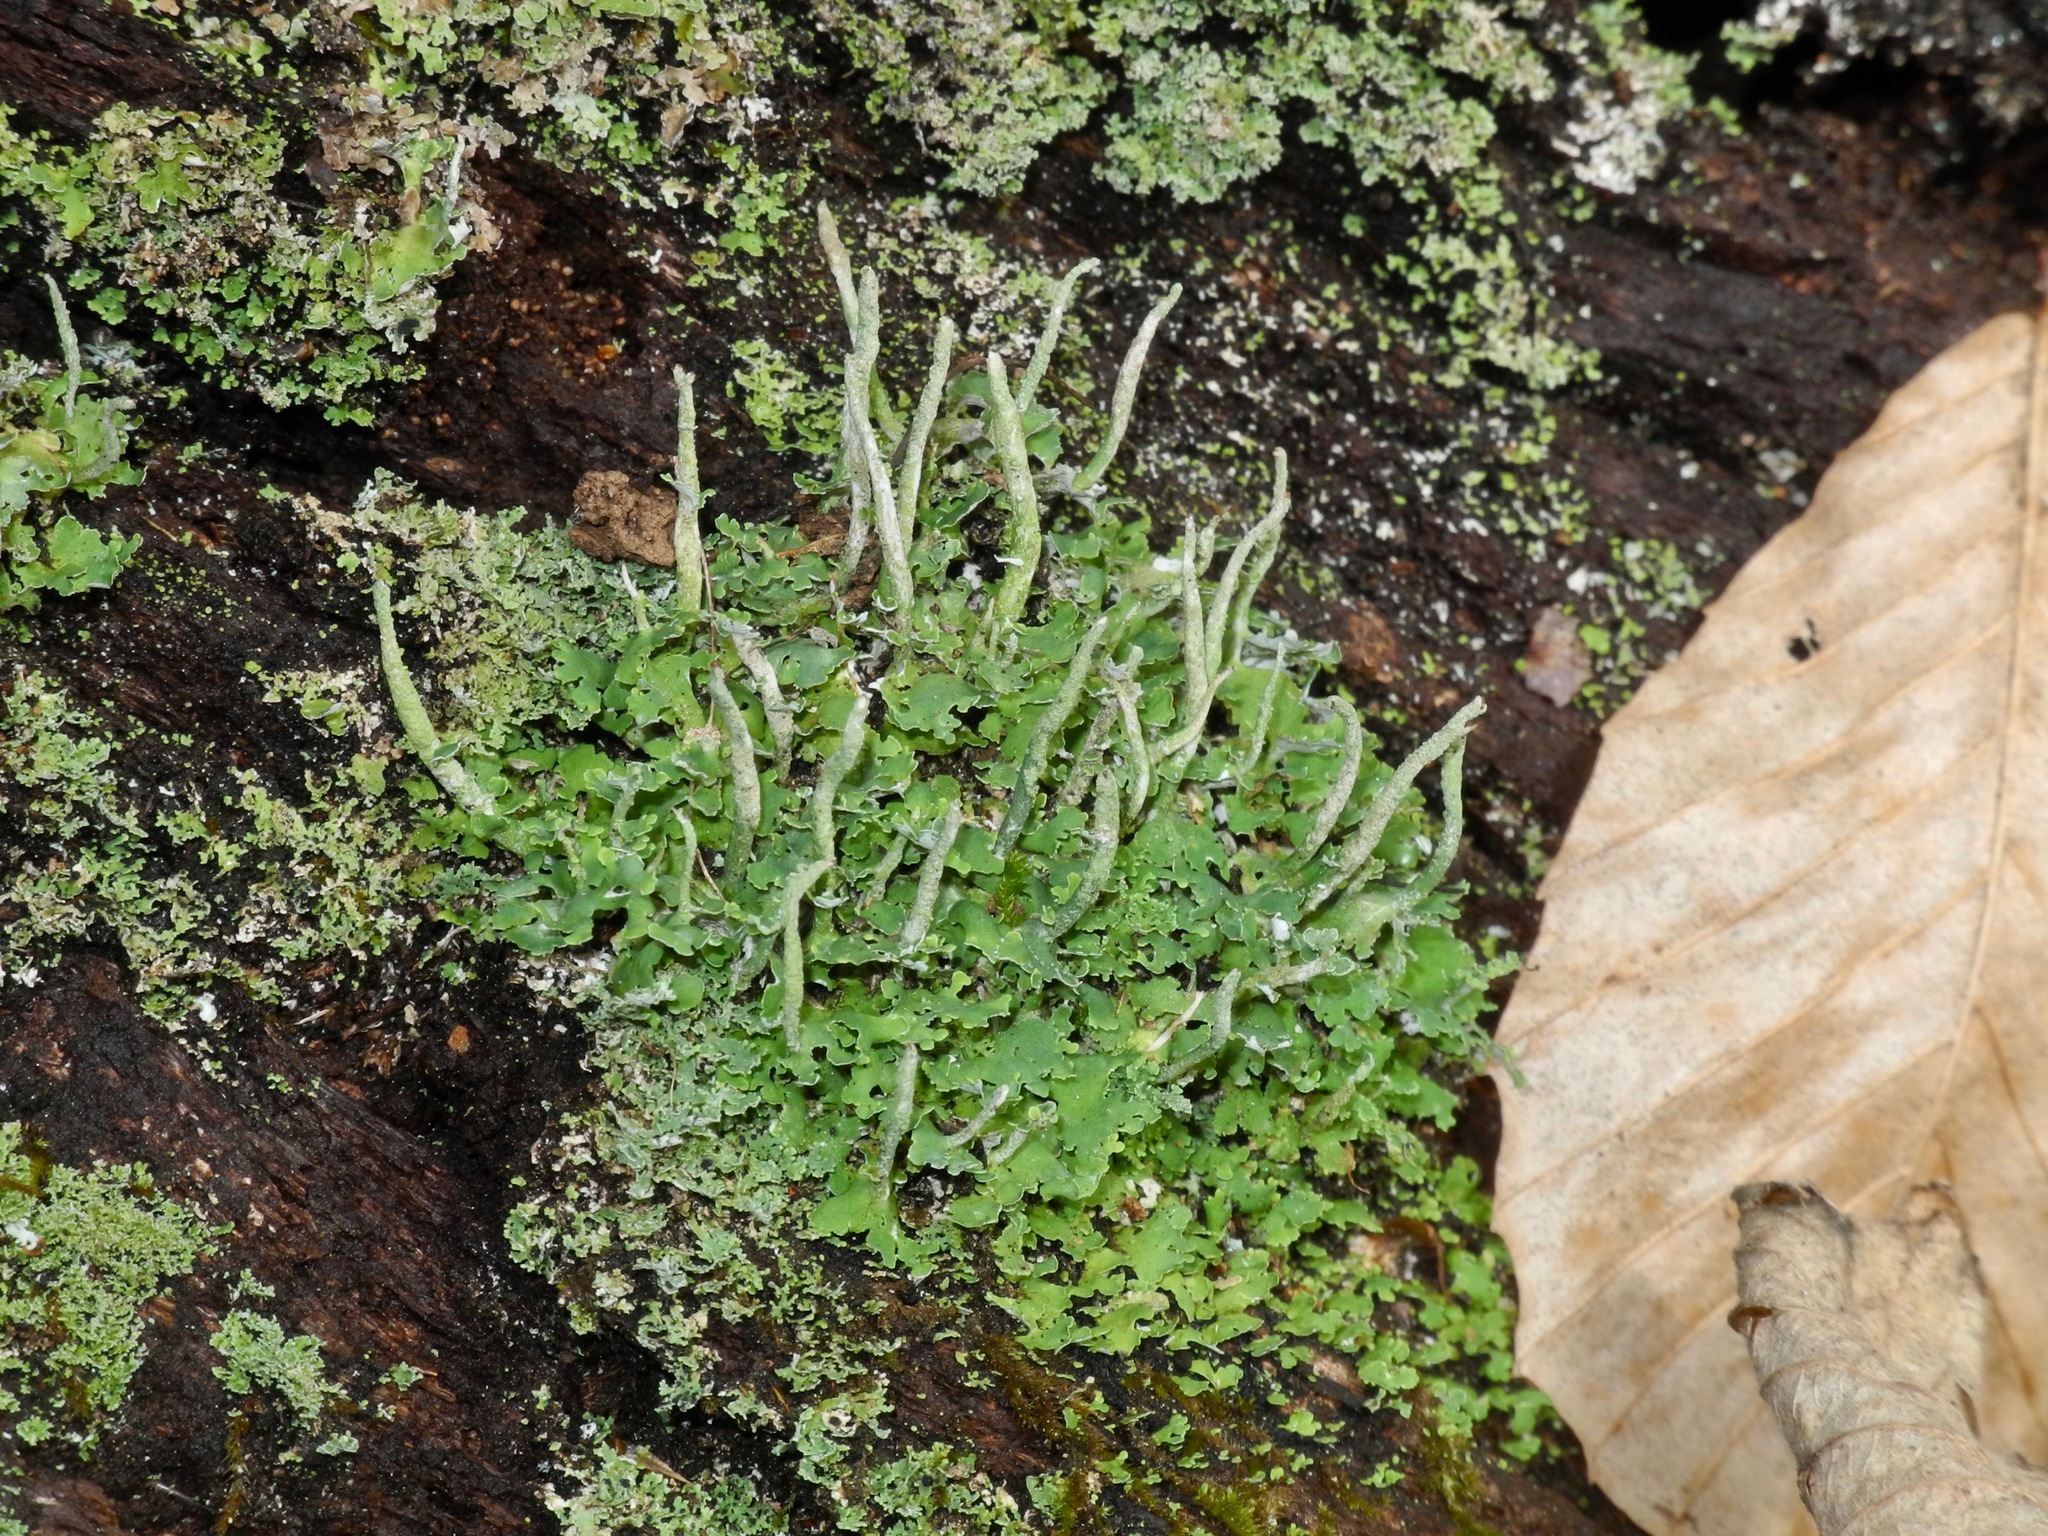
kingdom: Fungi
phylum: Ascomycota
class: Lecanoromycetes
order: Lecanorales
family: Cladoniaceae
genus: Cladonia
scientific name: Cladonia ochrochlora
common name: Smooth-footed powderhorn
